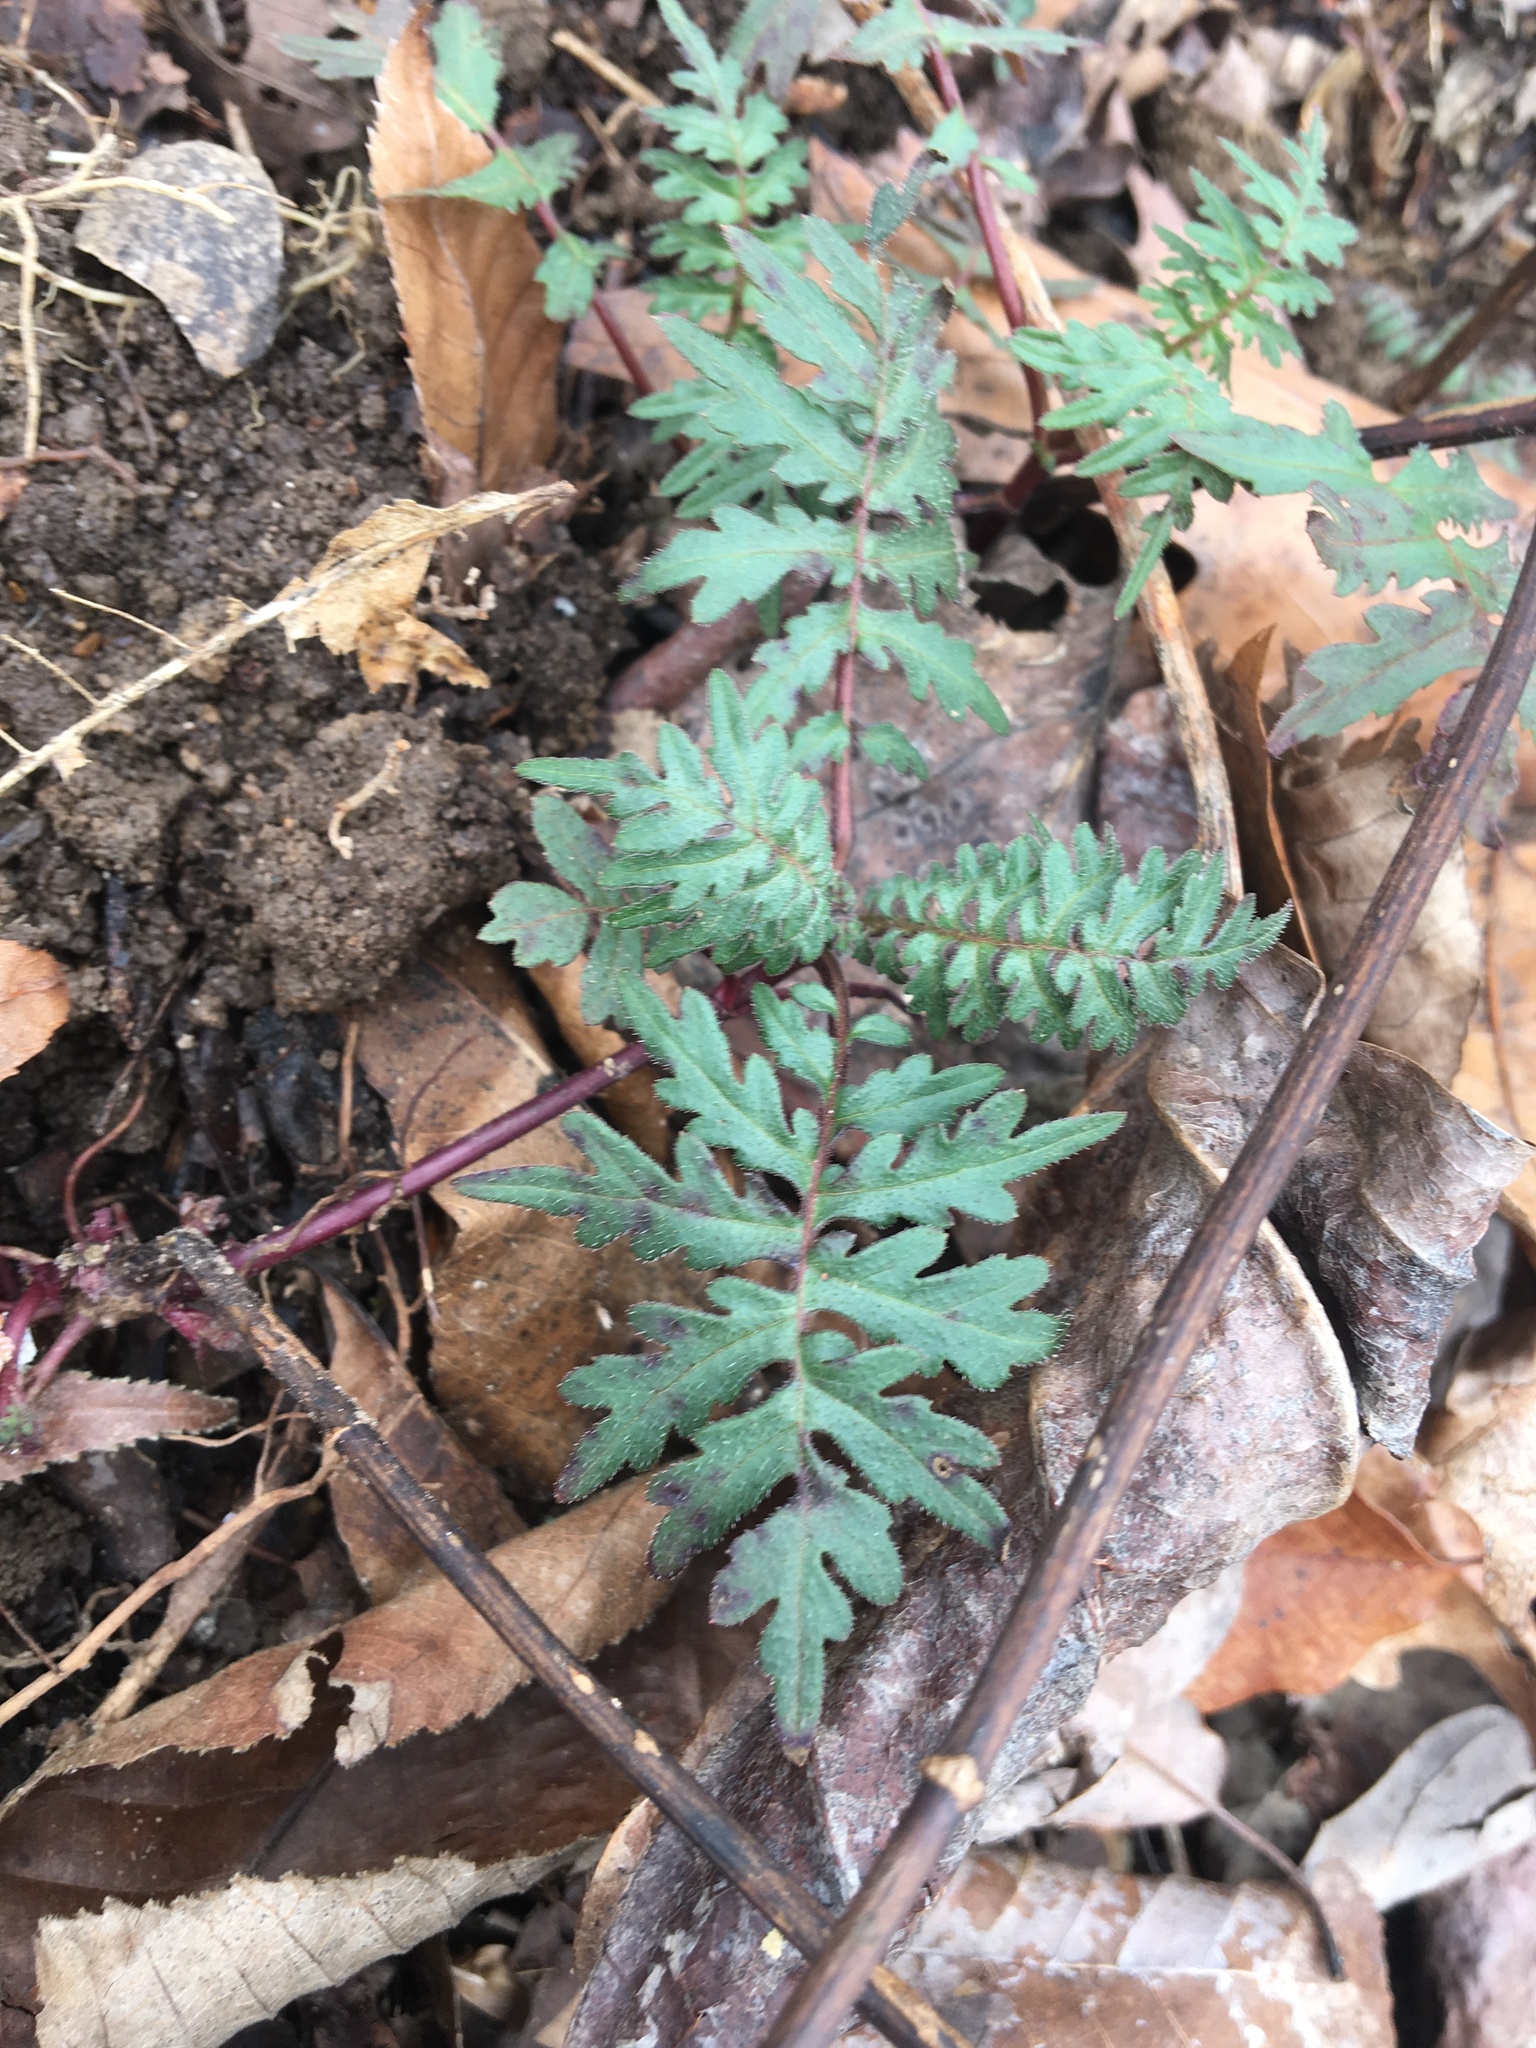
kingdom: Plantae
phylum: Tracheophyta
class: Magnoliopsida
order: Asterales
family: Asteraceae
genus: Polymnia
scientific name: Polymnia canadensis
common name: Pale-flowered leafcup
